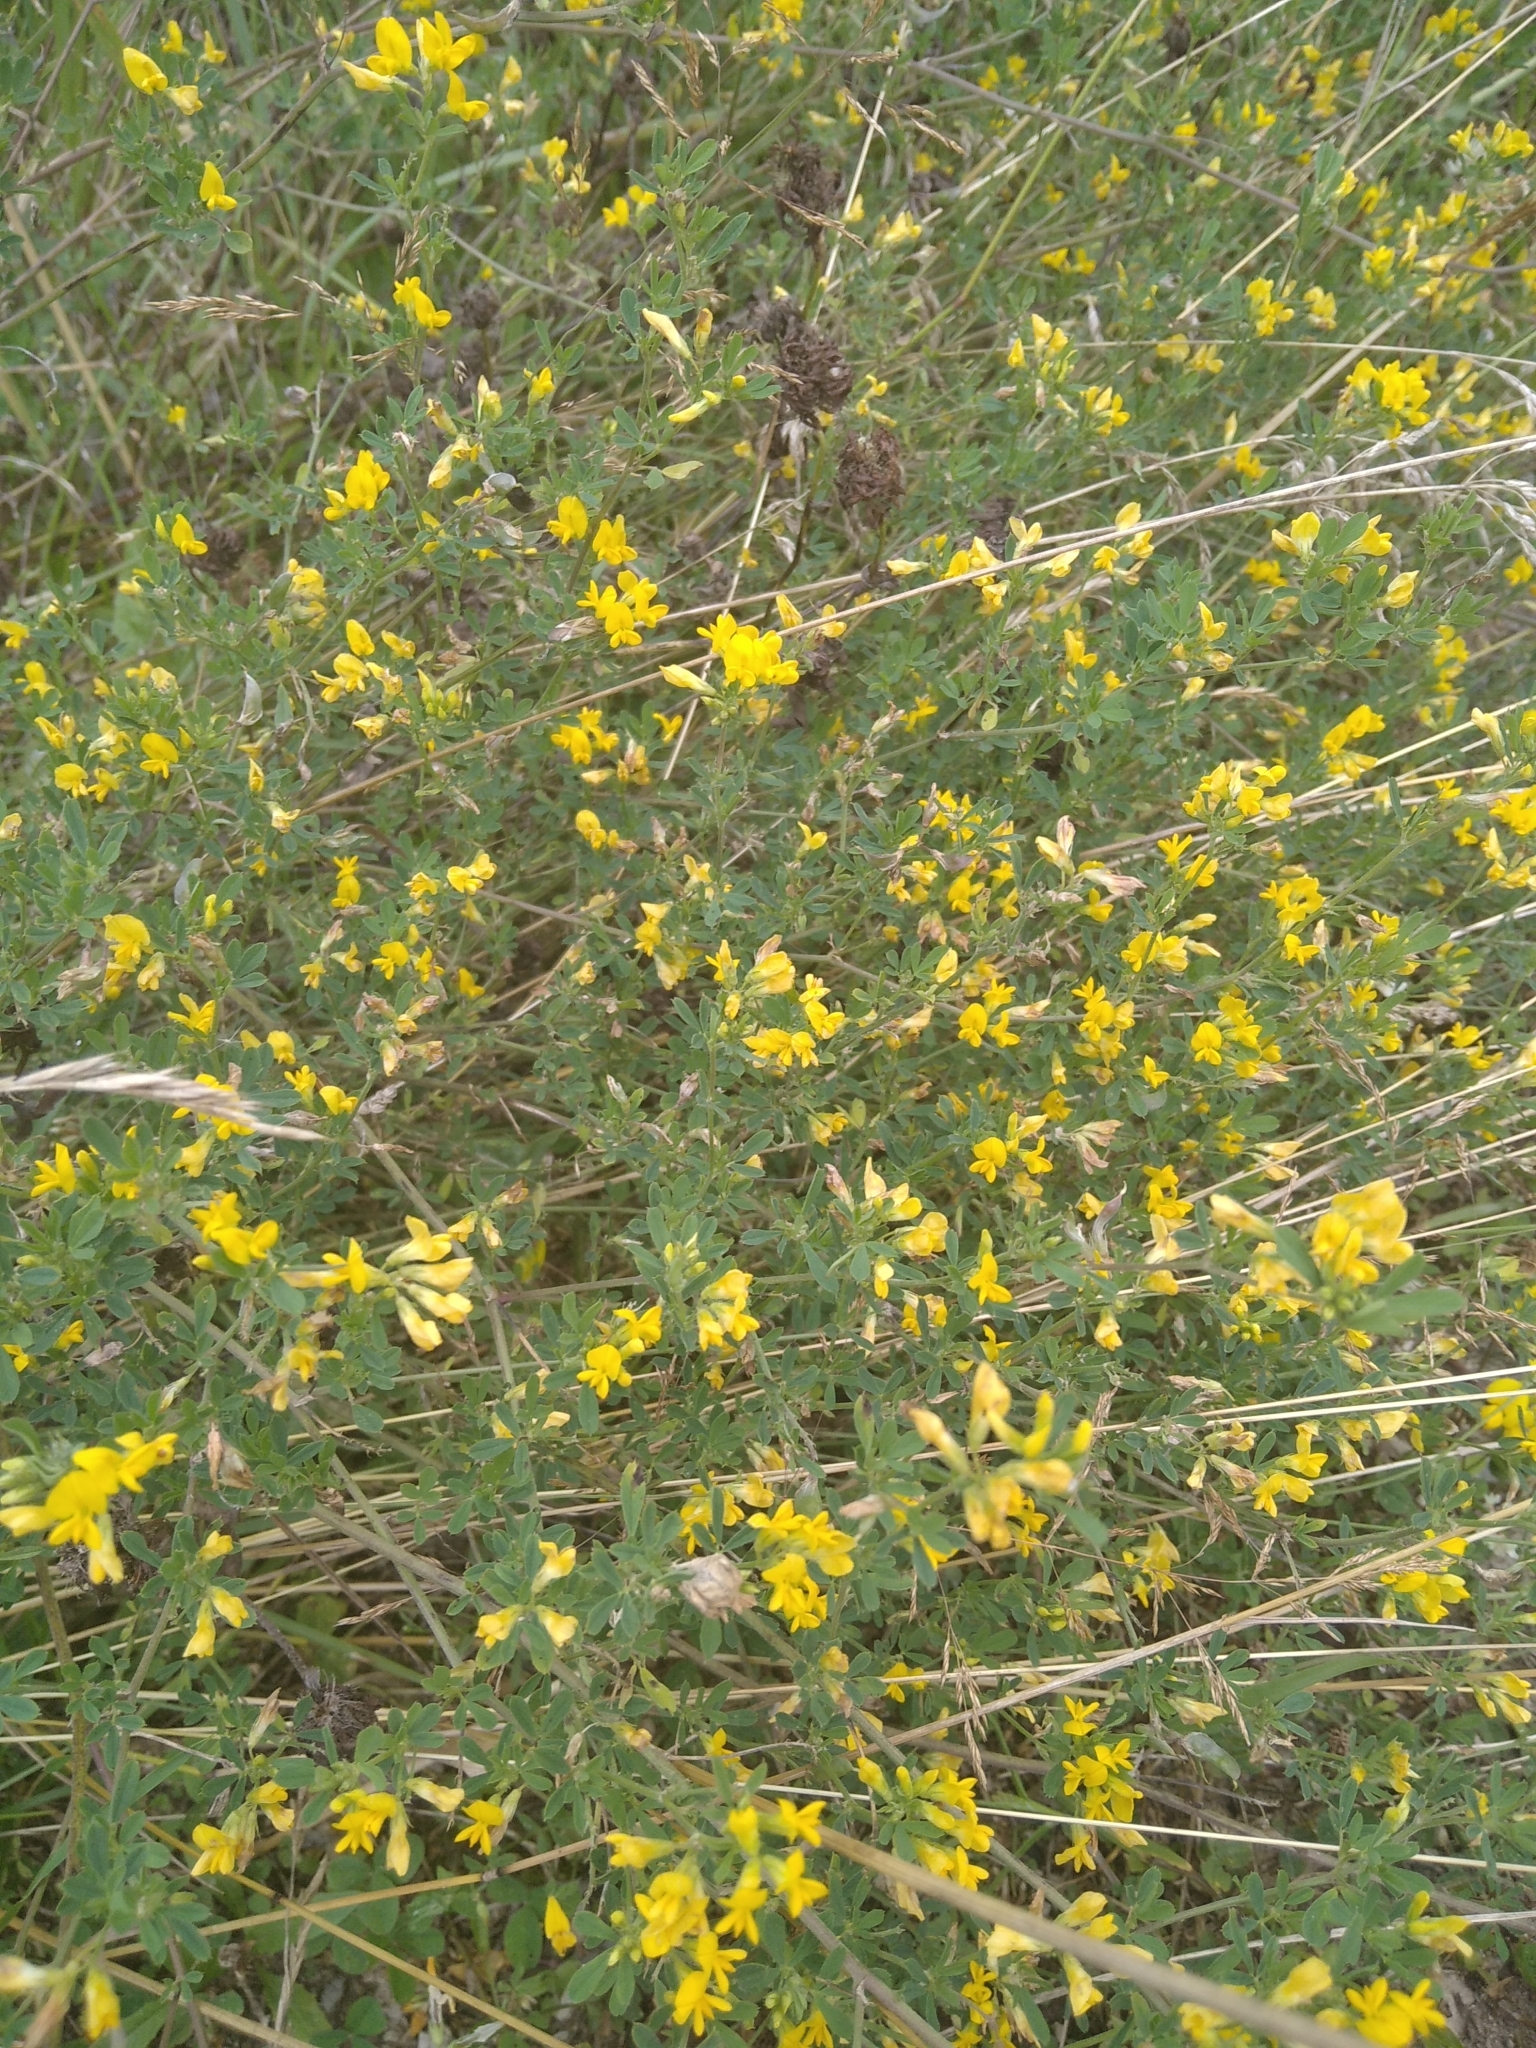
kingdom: Plantae
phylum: Tracheophyta
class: Magnoliopsida
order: Fabales
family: Fabaceae
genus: Medicago
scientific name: Medicago falcata
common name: Sickle medick
